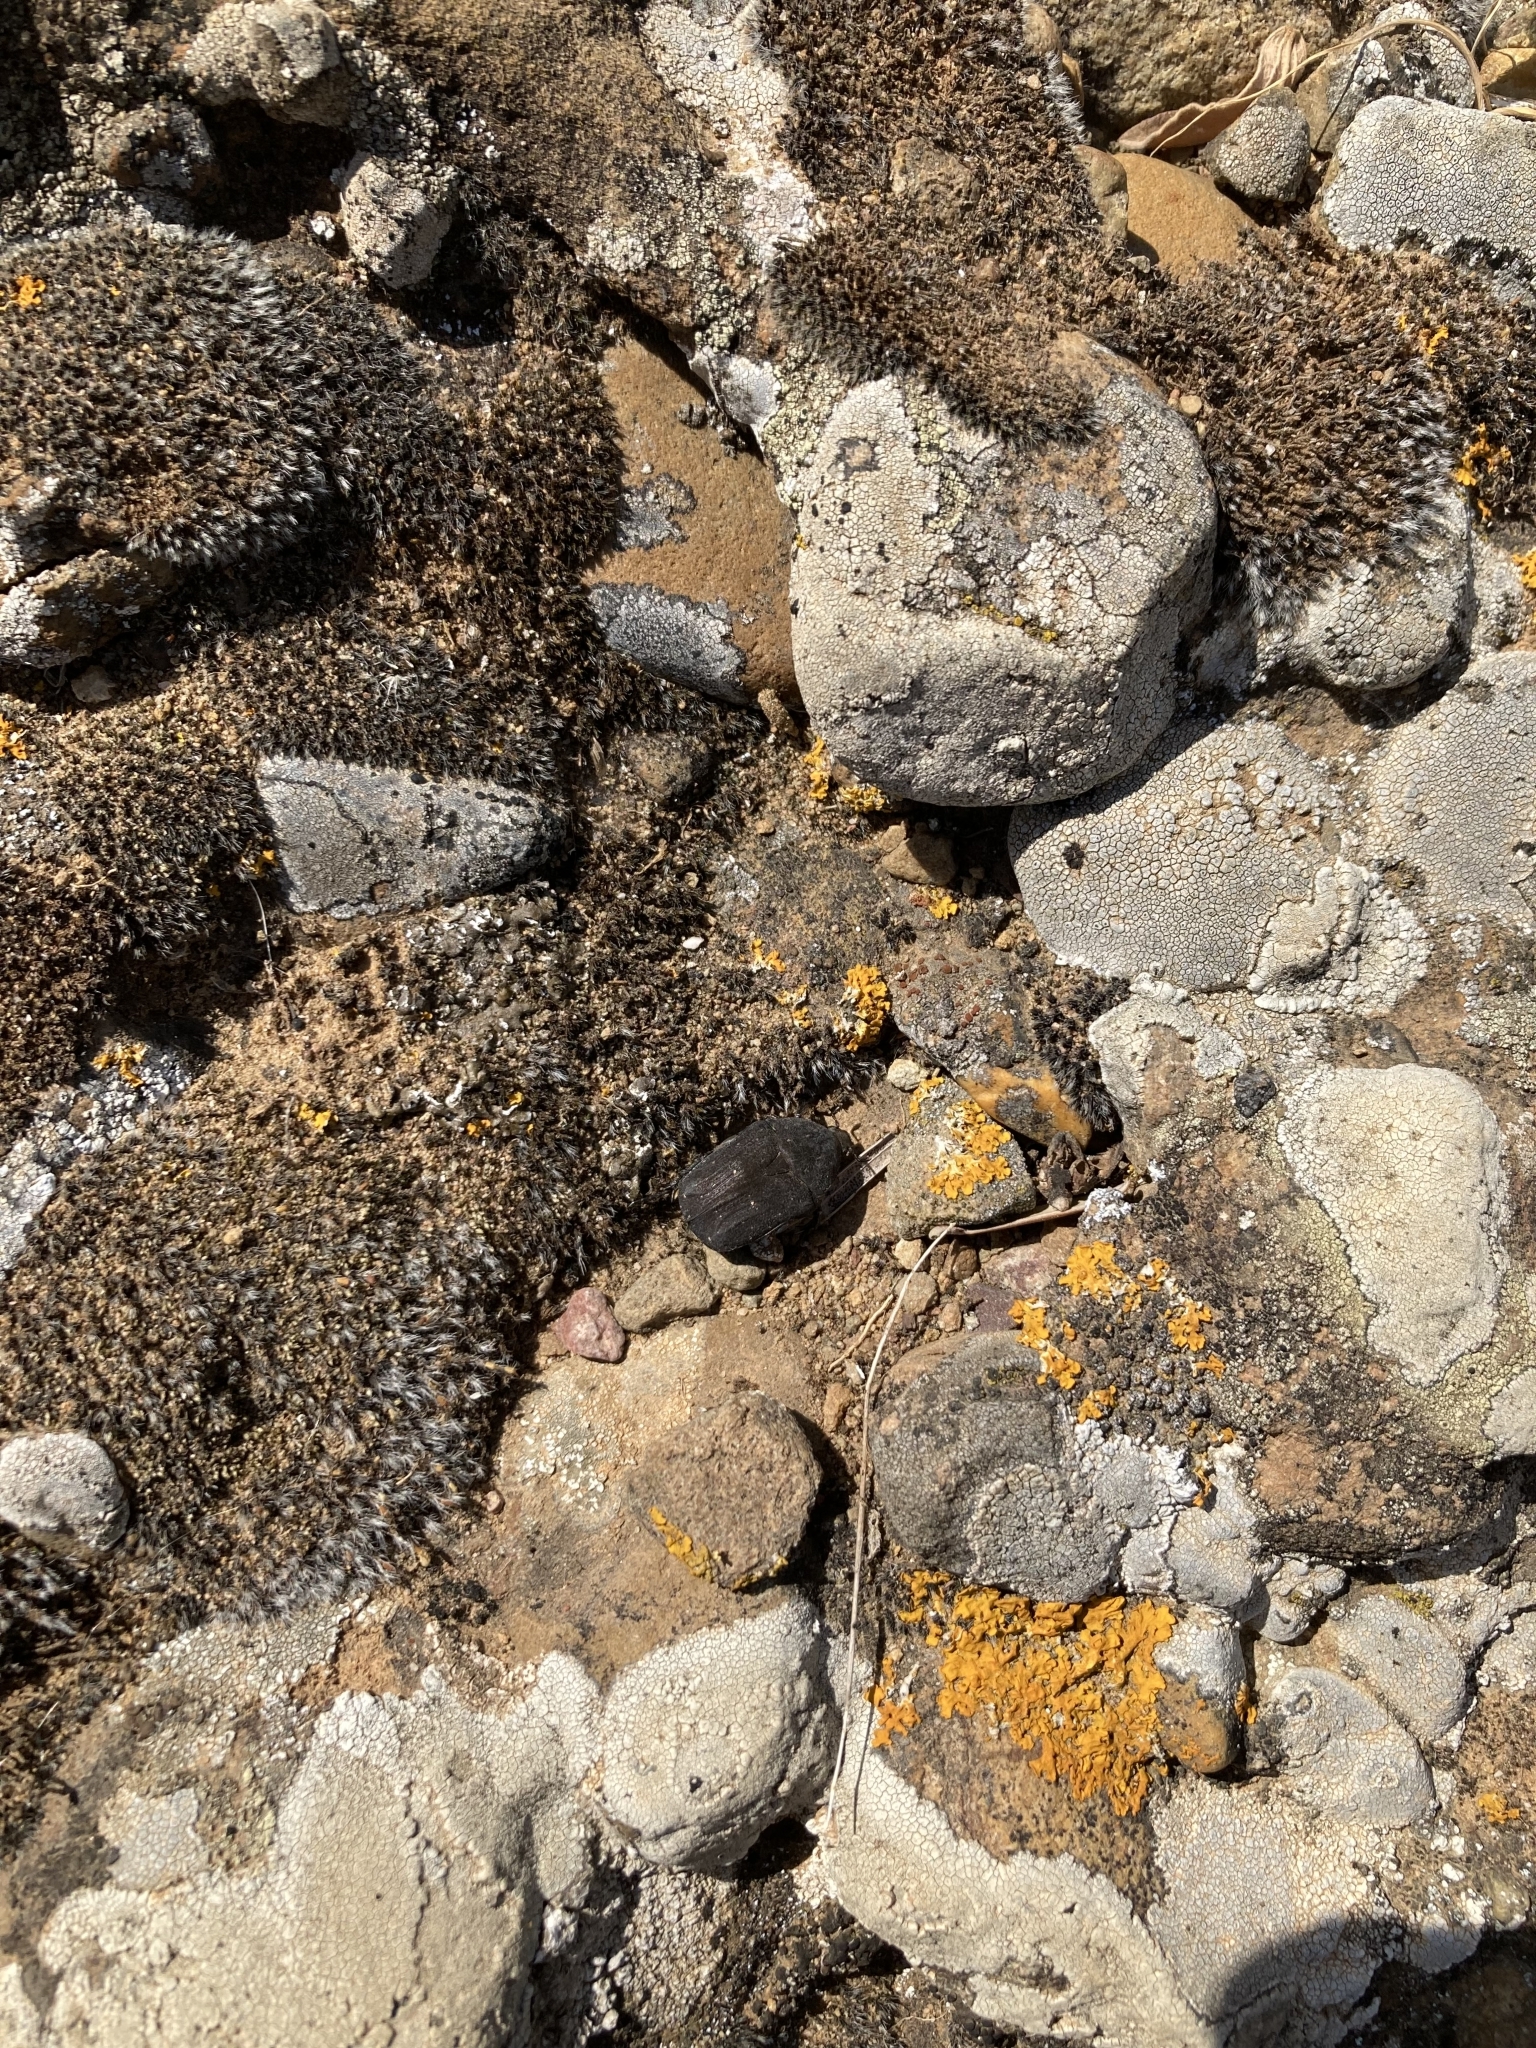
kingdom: Animalia
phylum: Arthropoda
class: Insecta
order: Coleoptera
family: Scarabaeidae
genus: Protaetia
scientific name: Protaetia morio
